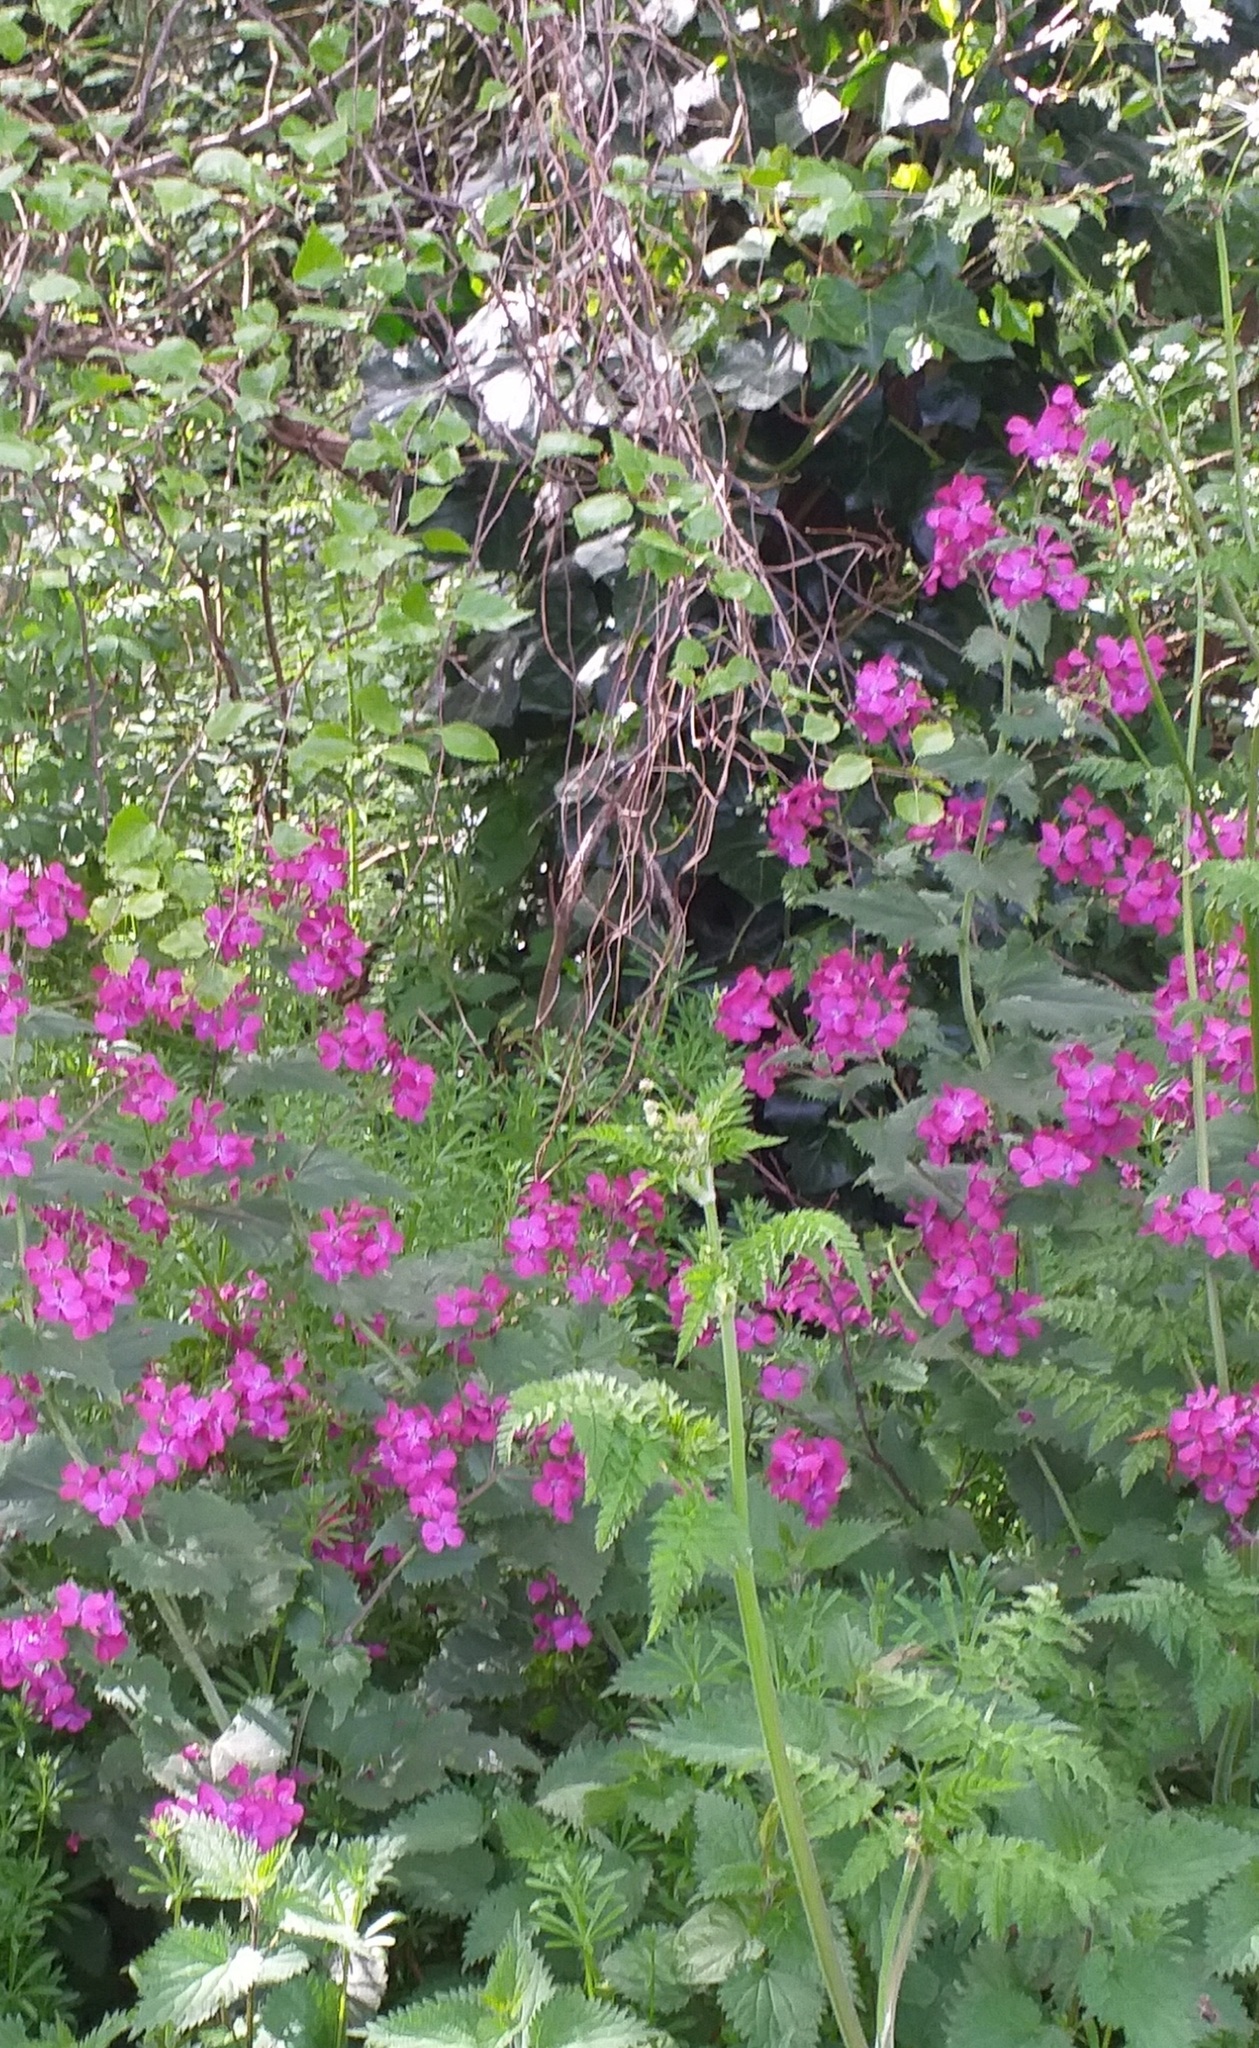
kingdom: Plantae
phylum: Tracheophyta
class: Magnoliopsida
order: Brassicales
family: Brassicaceae
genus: Lunaria
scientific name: Lunaria annua
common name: Honesty
